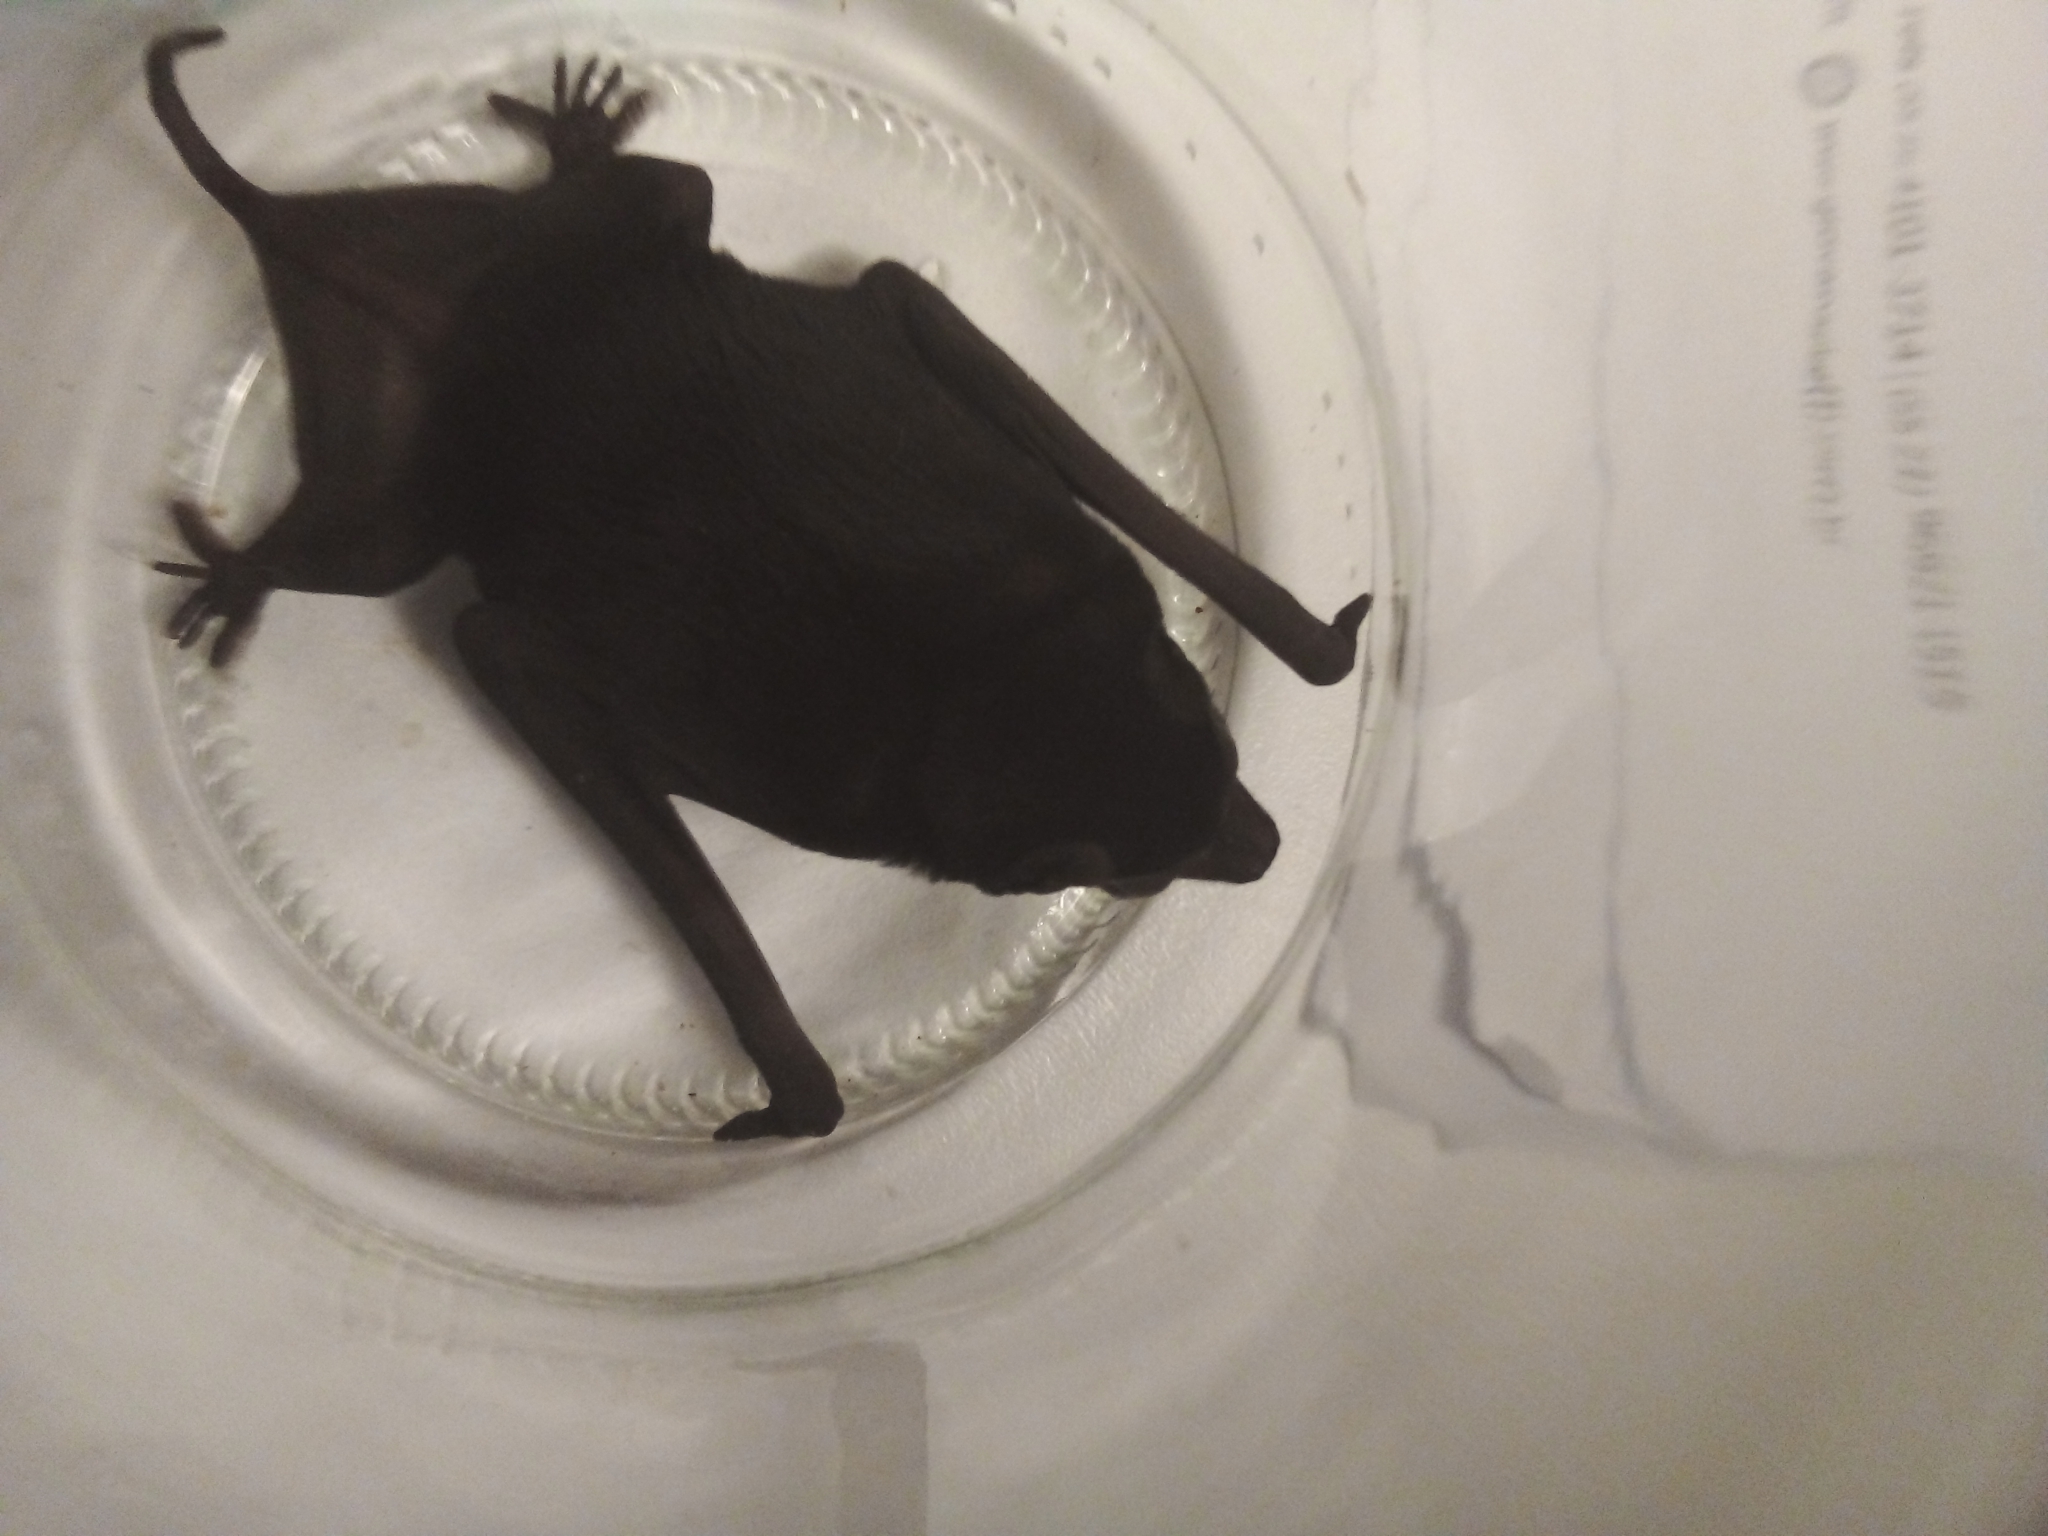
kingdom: Animalia
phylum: Chordata
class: Mammalia
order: Chiroptera
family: Molossidae
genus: Molossus
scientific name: Molossus
